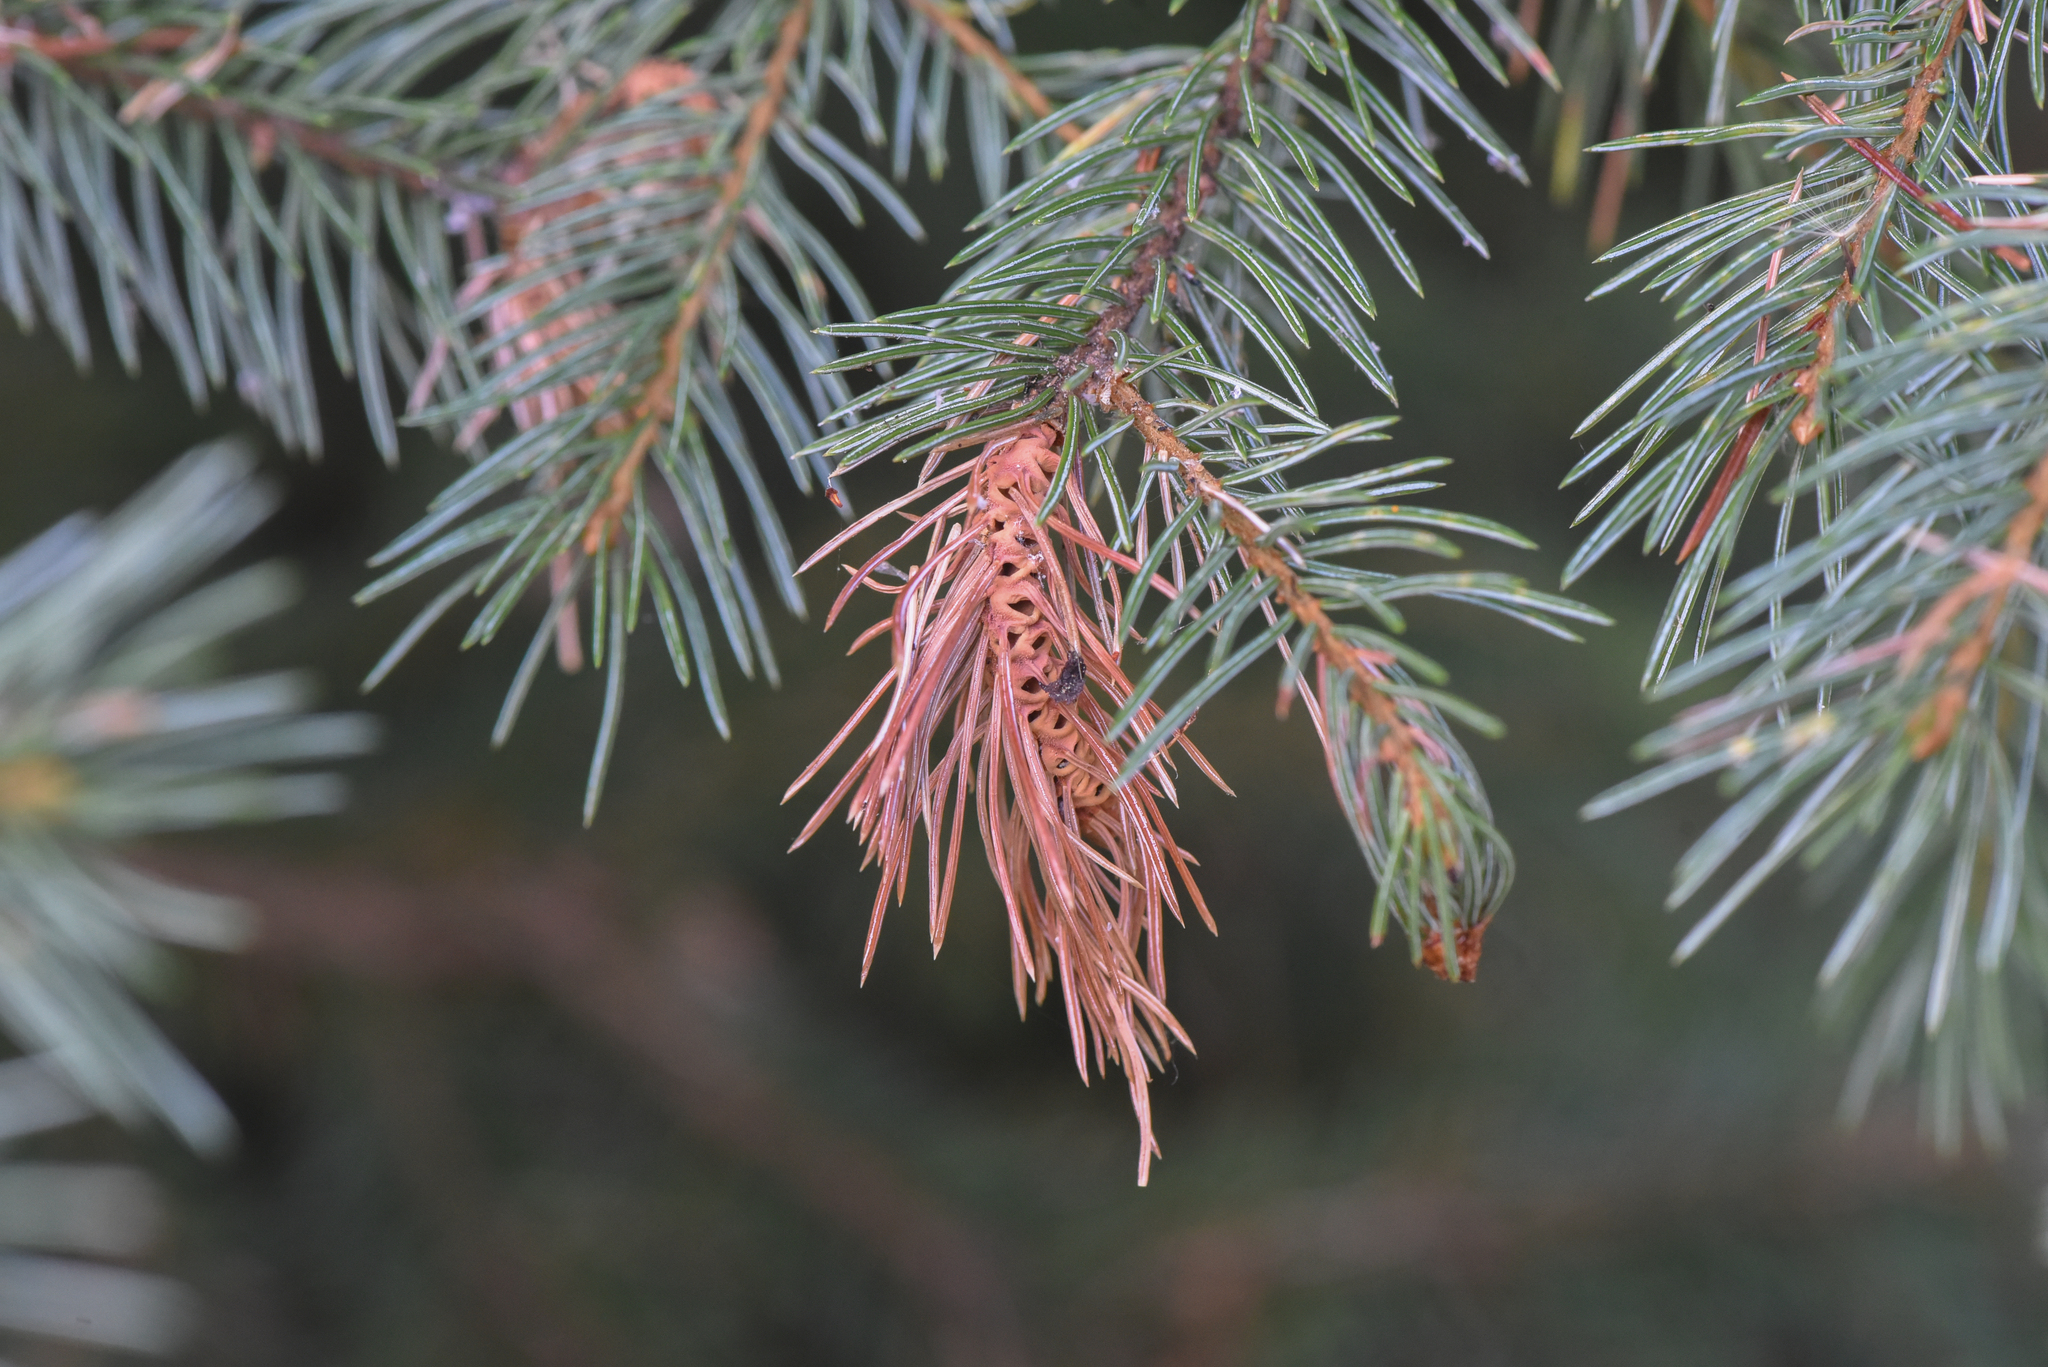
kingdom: Animalia
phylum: Arthropoda
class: Insecta
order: Hemiptera
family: Adelgidae
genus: Adelges
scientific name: Adelges cooleyi
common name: Cooley spruce gall adelgid
